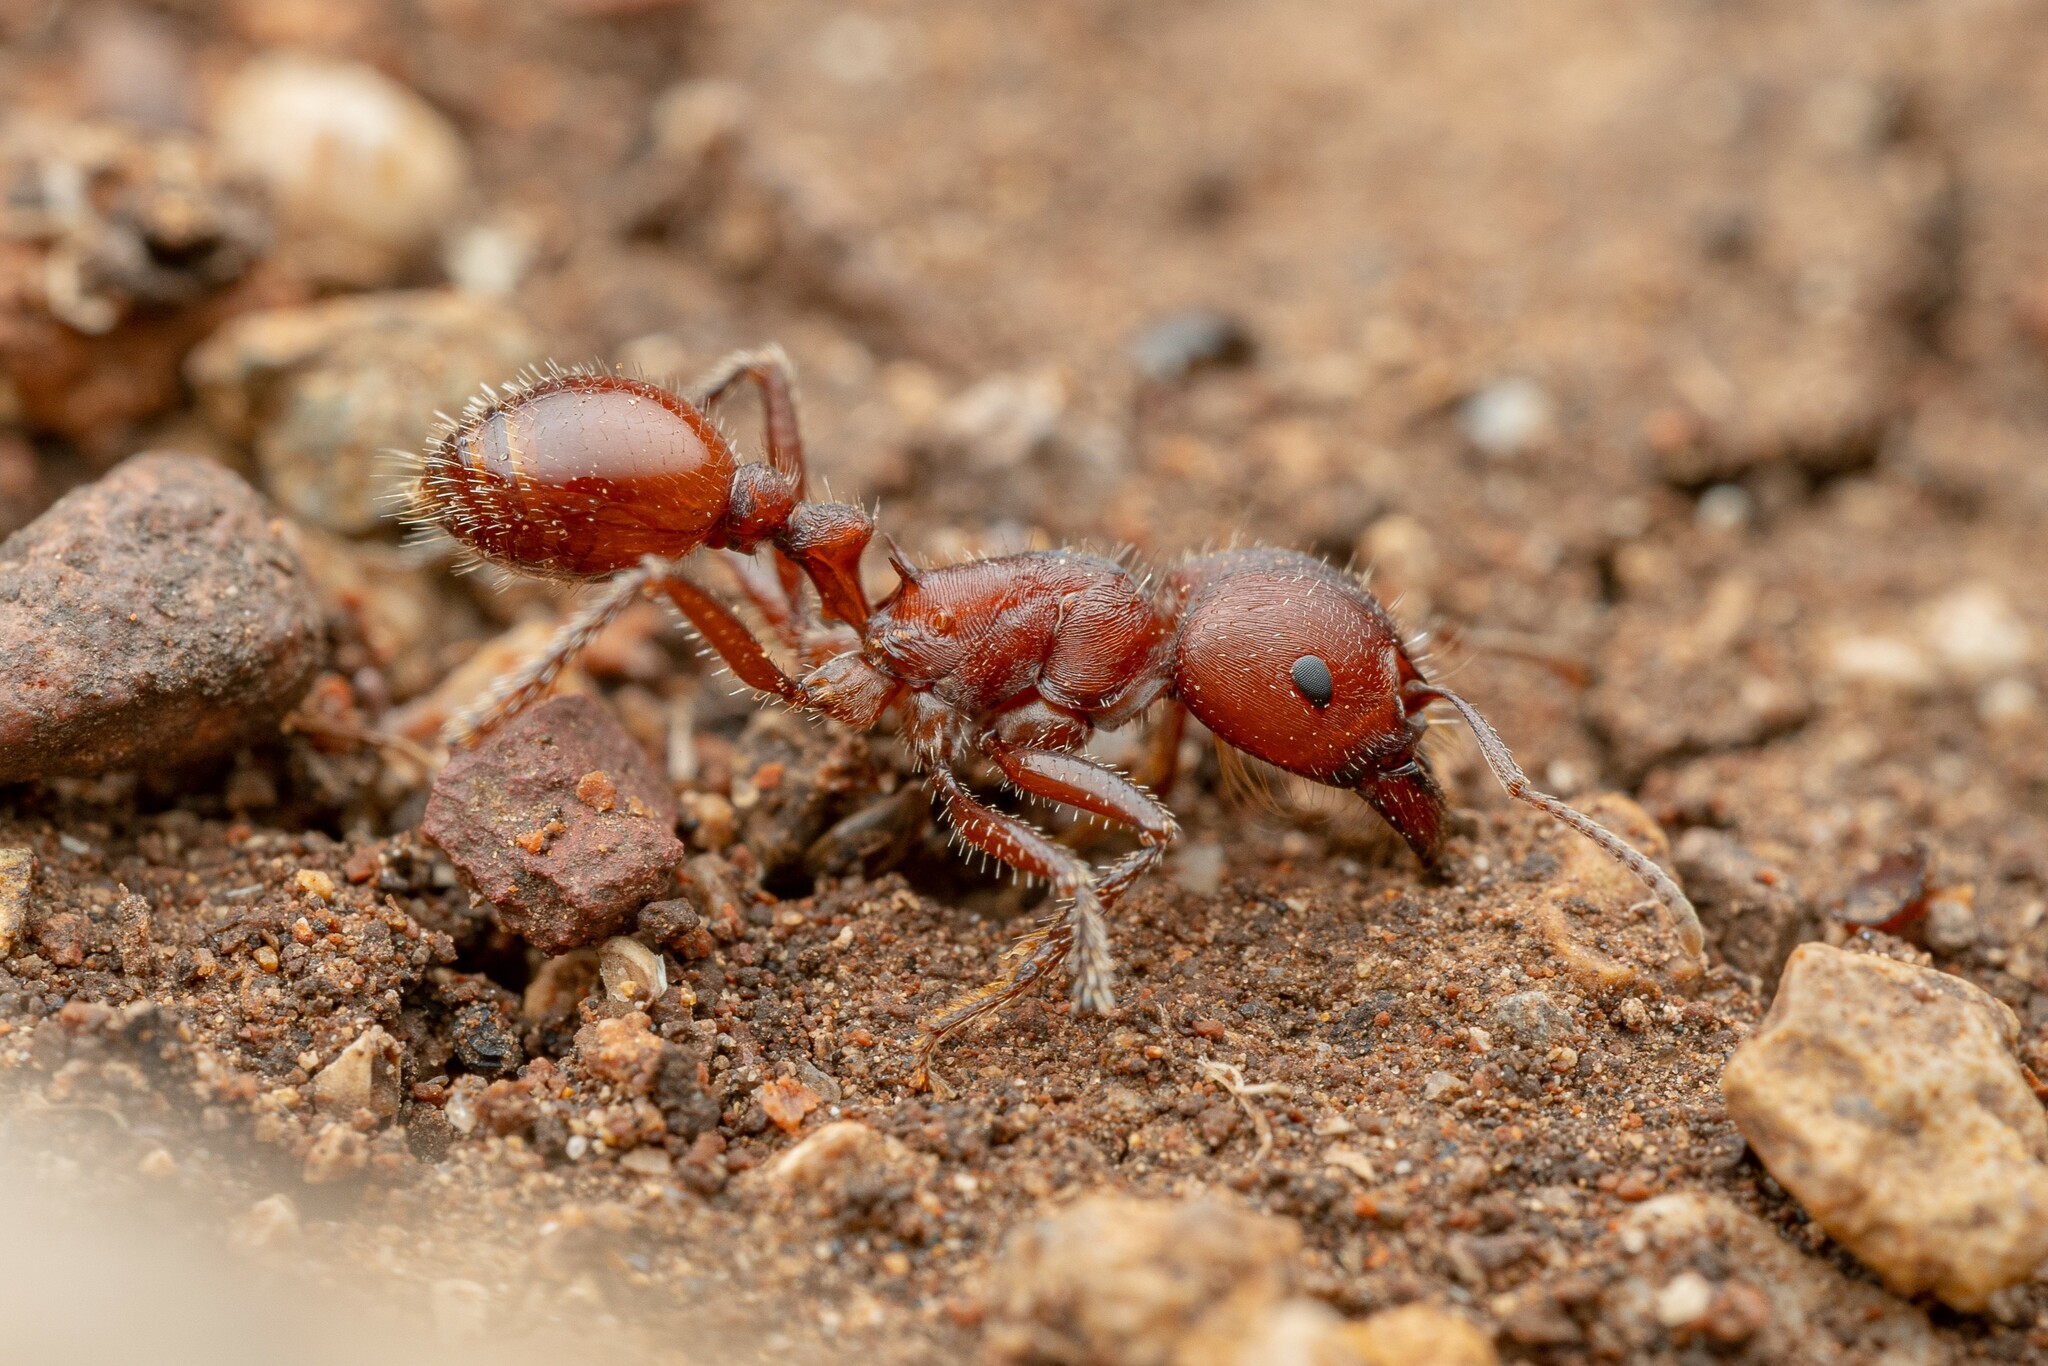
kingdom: Animalia
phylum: Arthropoda
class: Insecta
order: Hymenoptera
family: Formicidae
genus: Pogonomyrmex
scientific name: Pogonomyrmex barbatus
